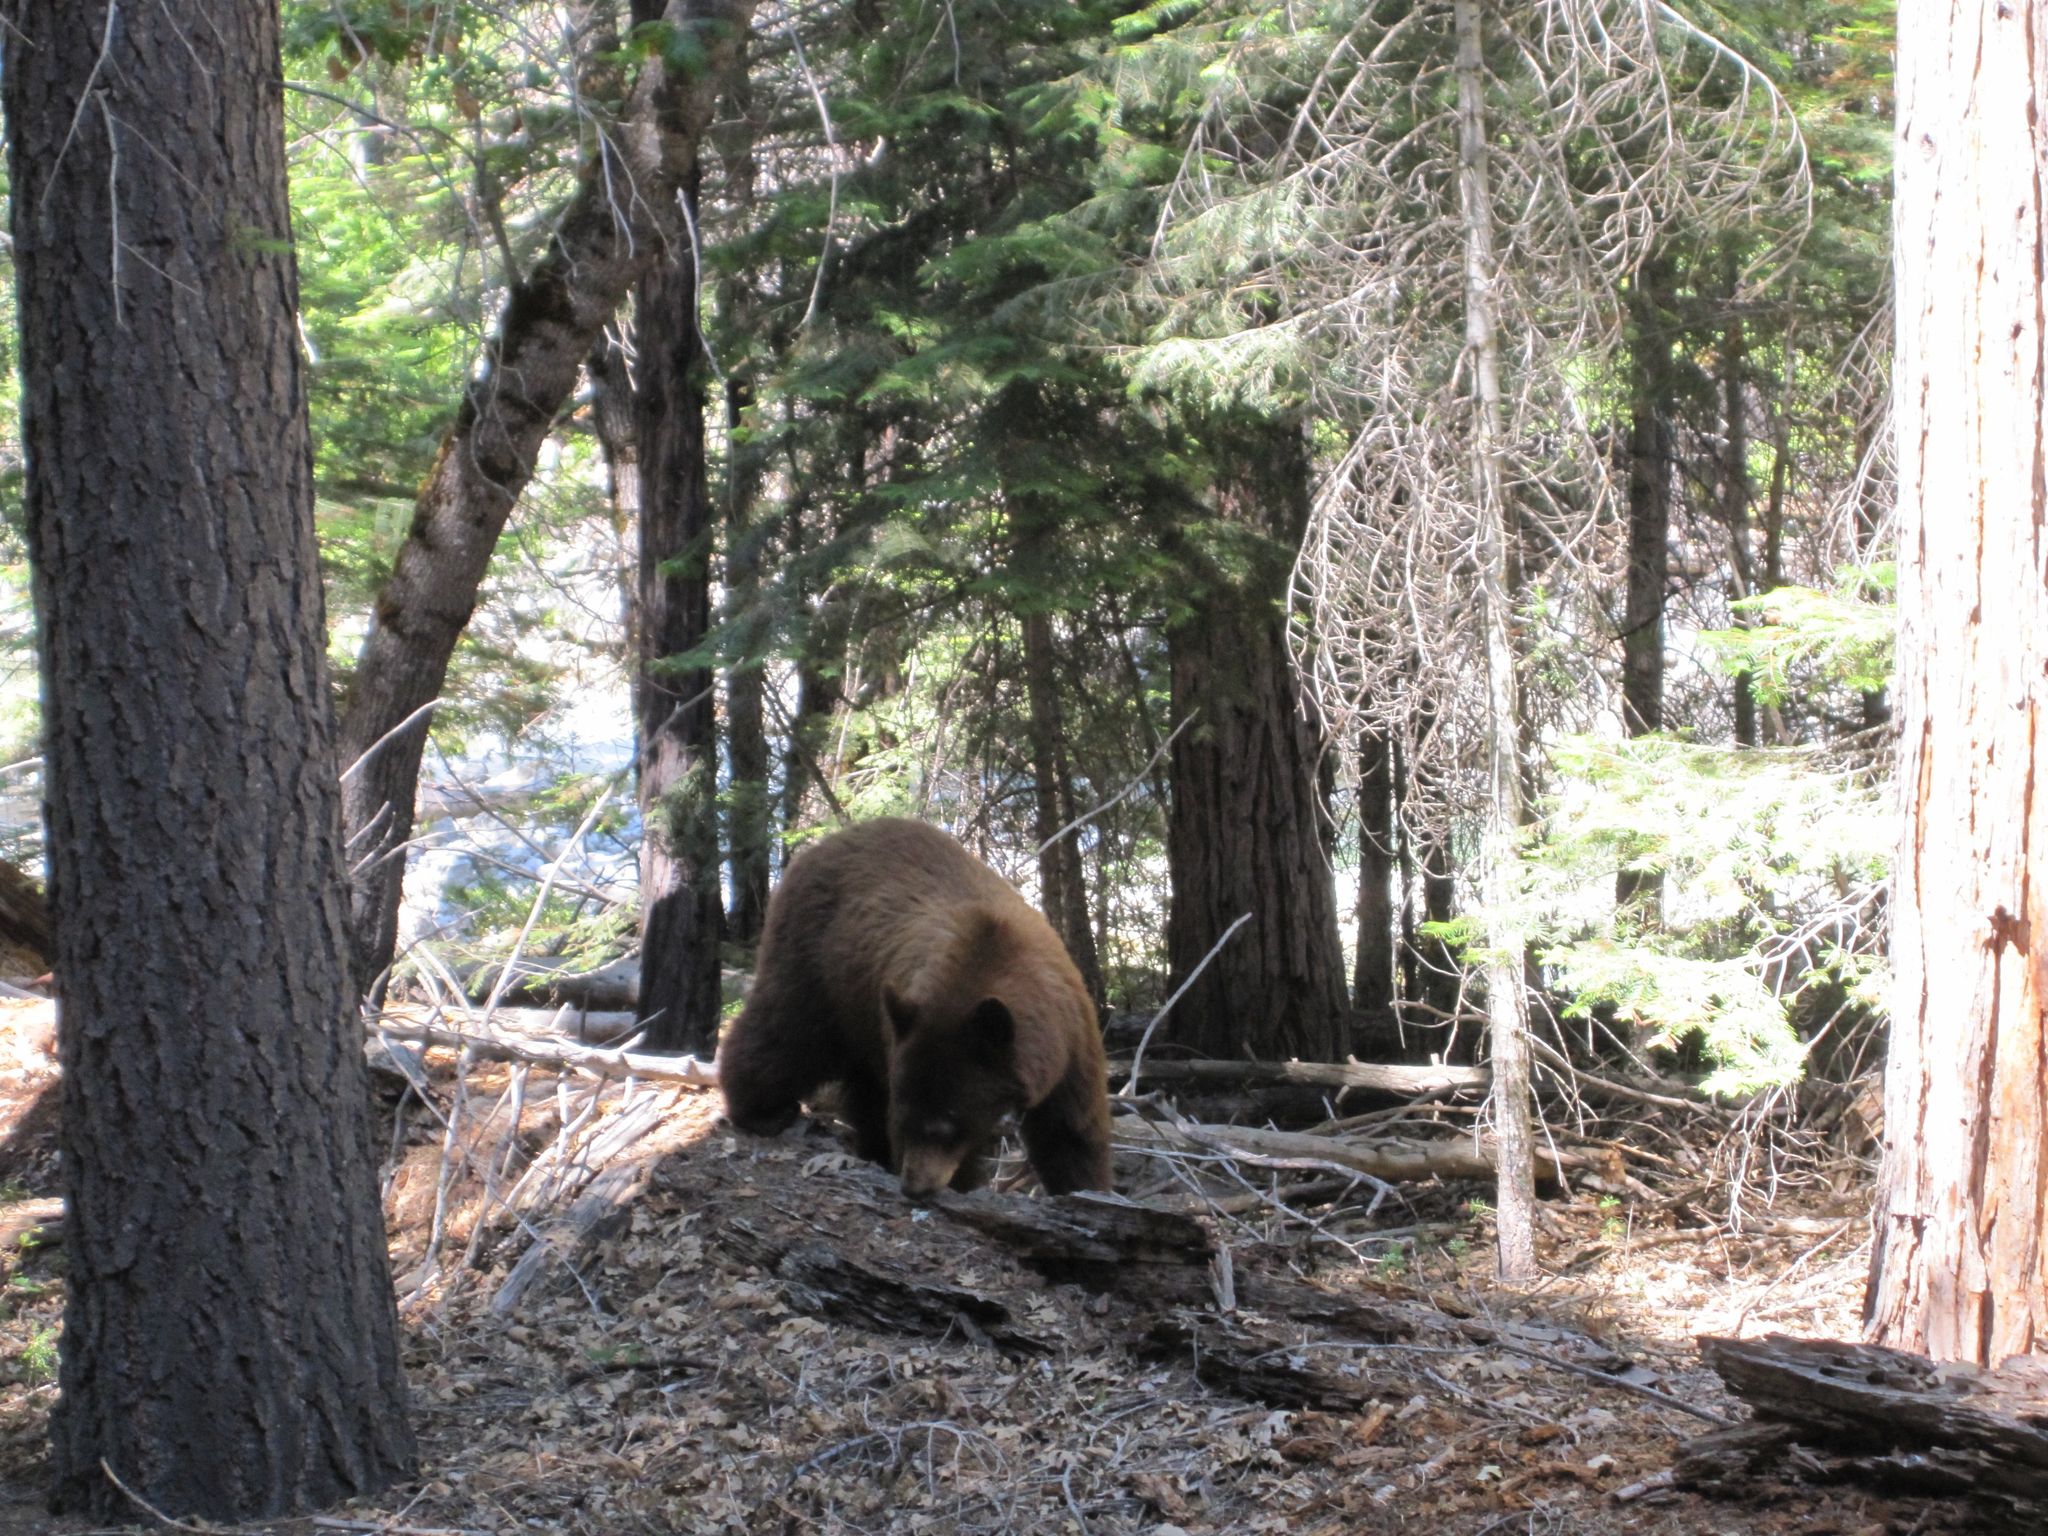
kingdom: Animalia
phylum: Chordata
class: Mammalia
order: Carnivora
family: Ursidae
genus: Ursus
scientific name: Ursus americanus
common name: American black bear
